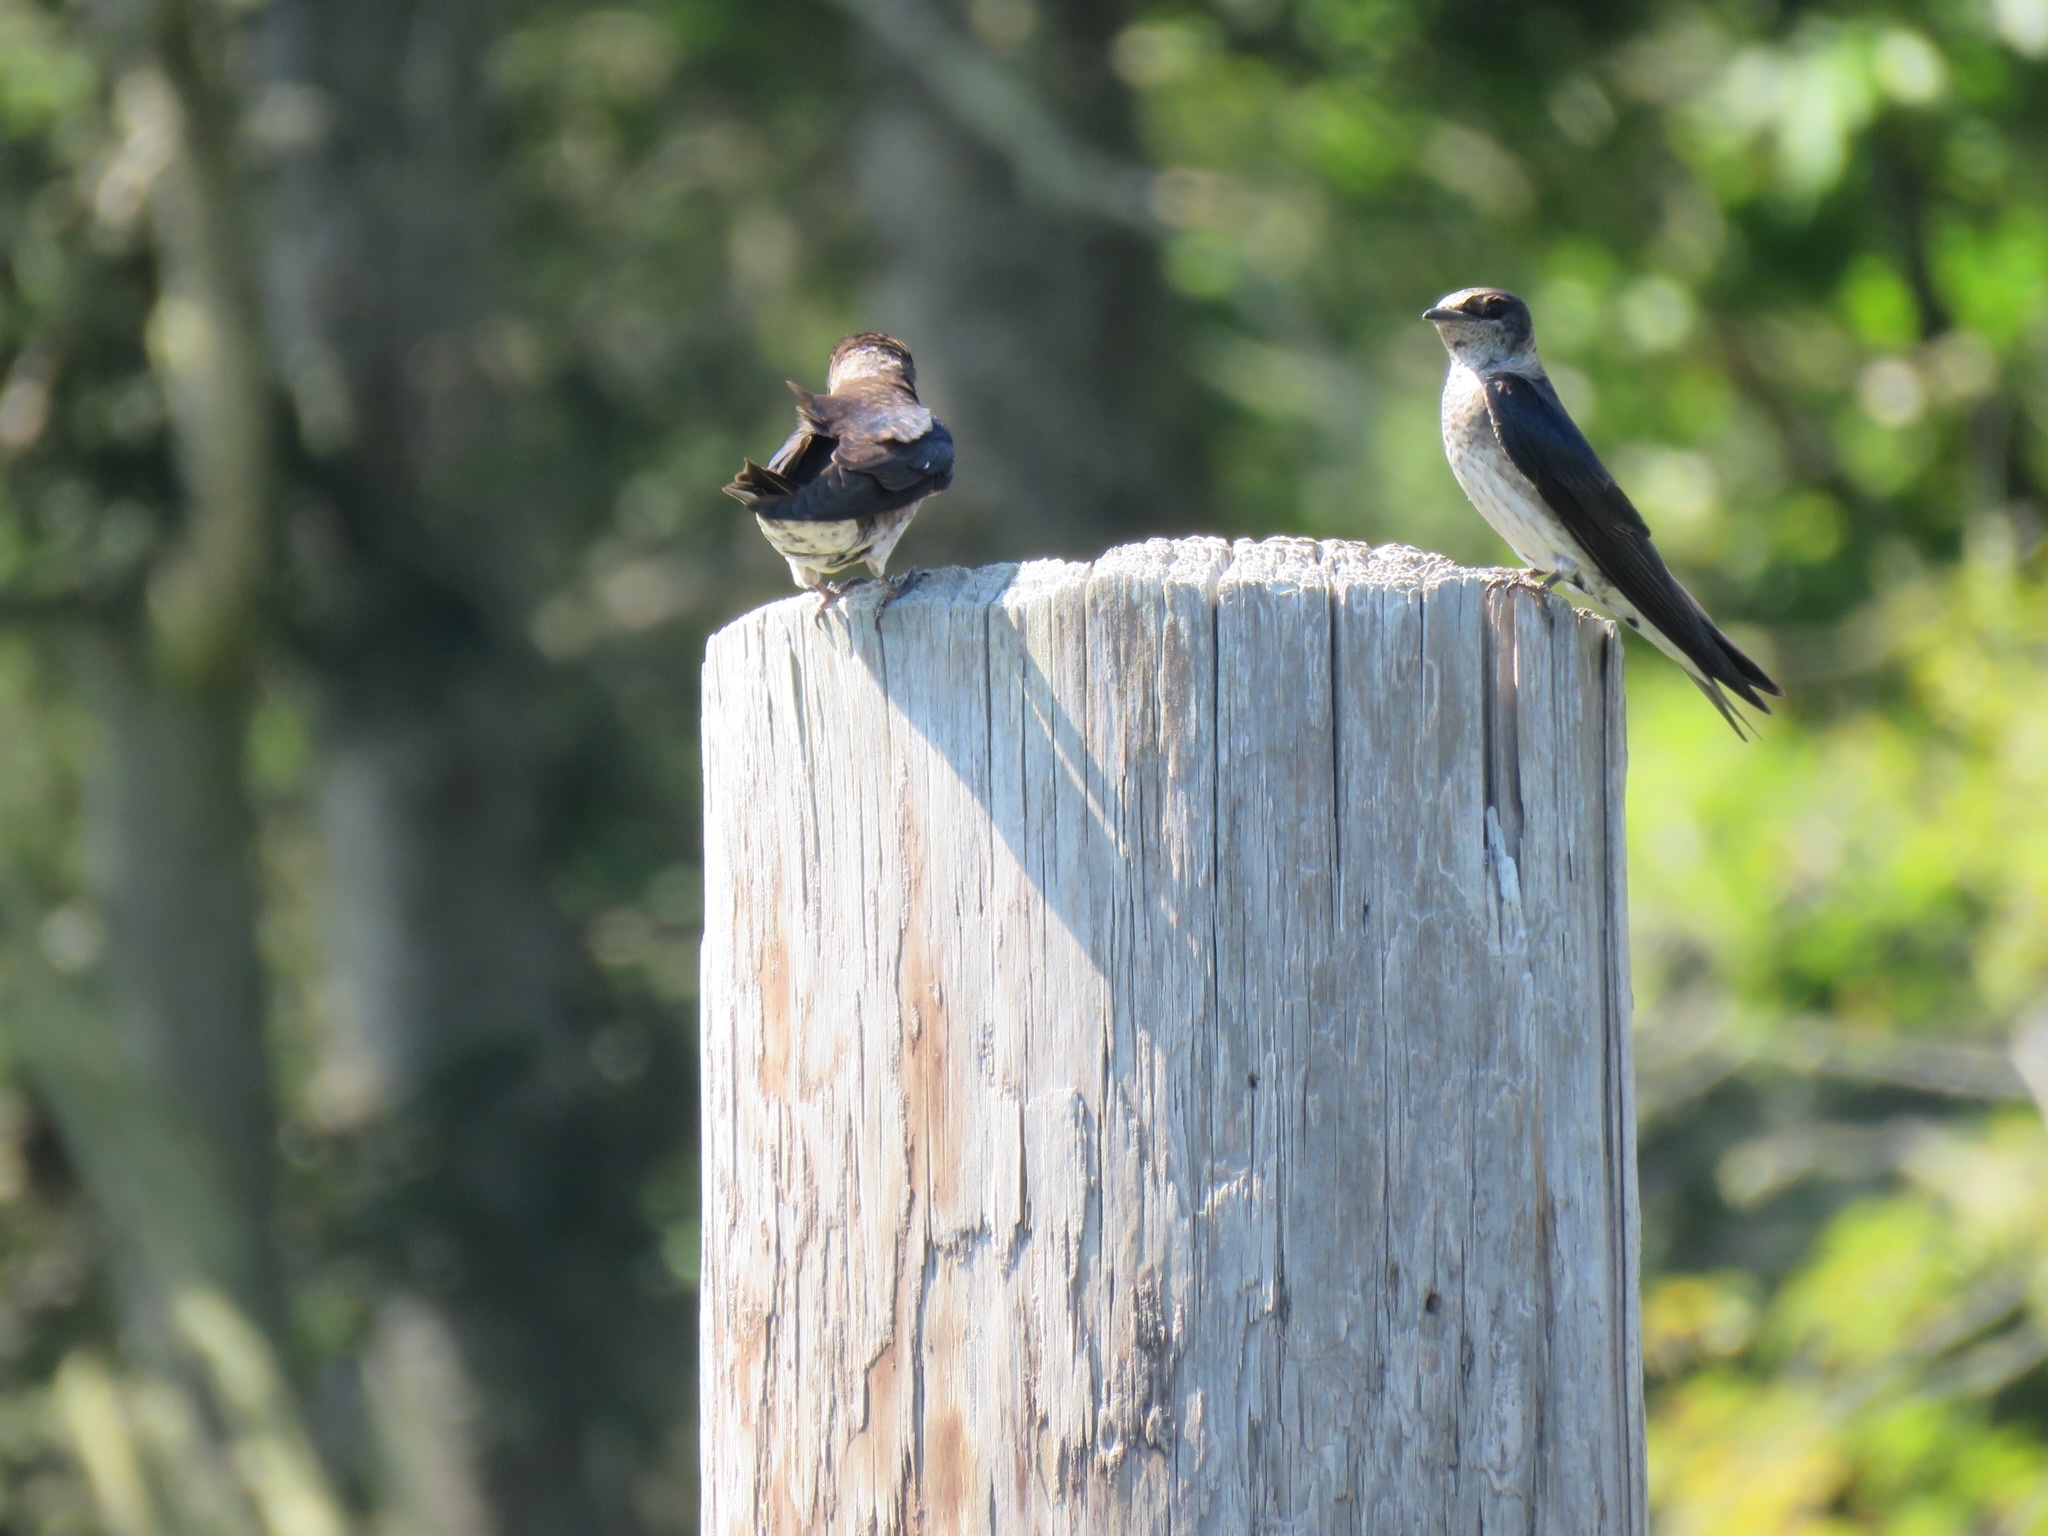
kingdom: Animalia
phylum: Chordata
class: Aves
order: Passeriformes
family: Hirundinidae
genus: Progne
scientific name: Progne subis
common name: Purple martin
